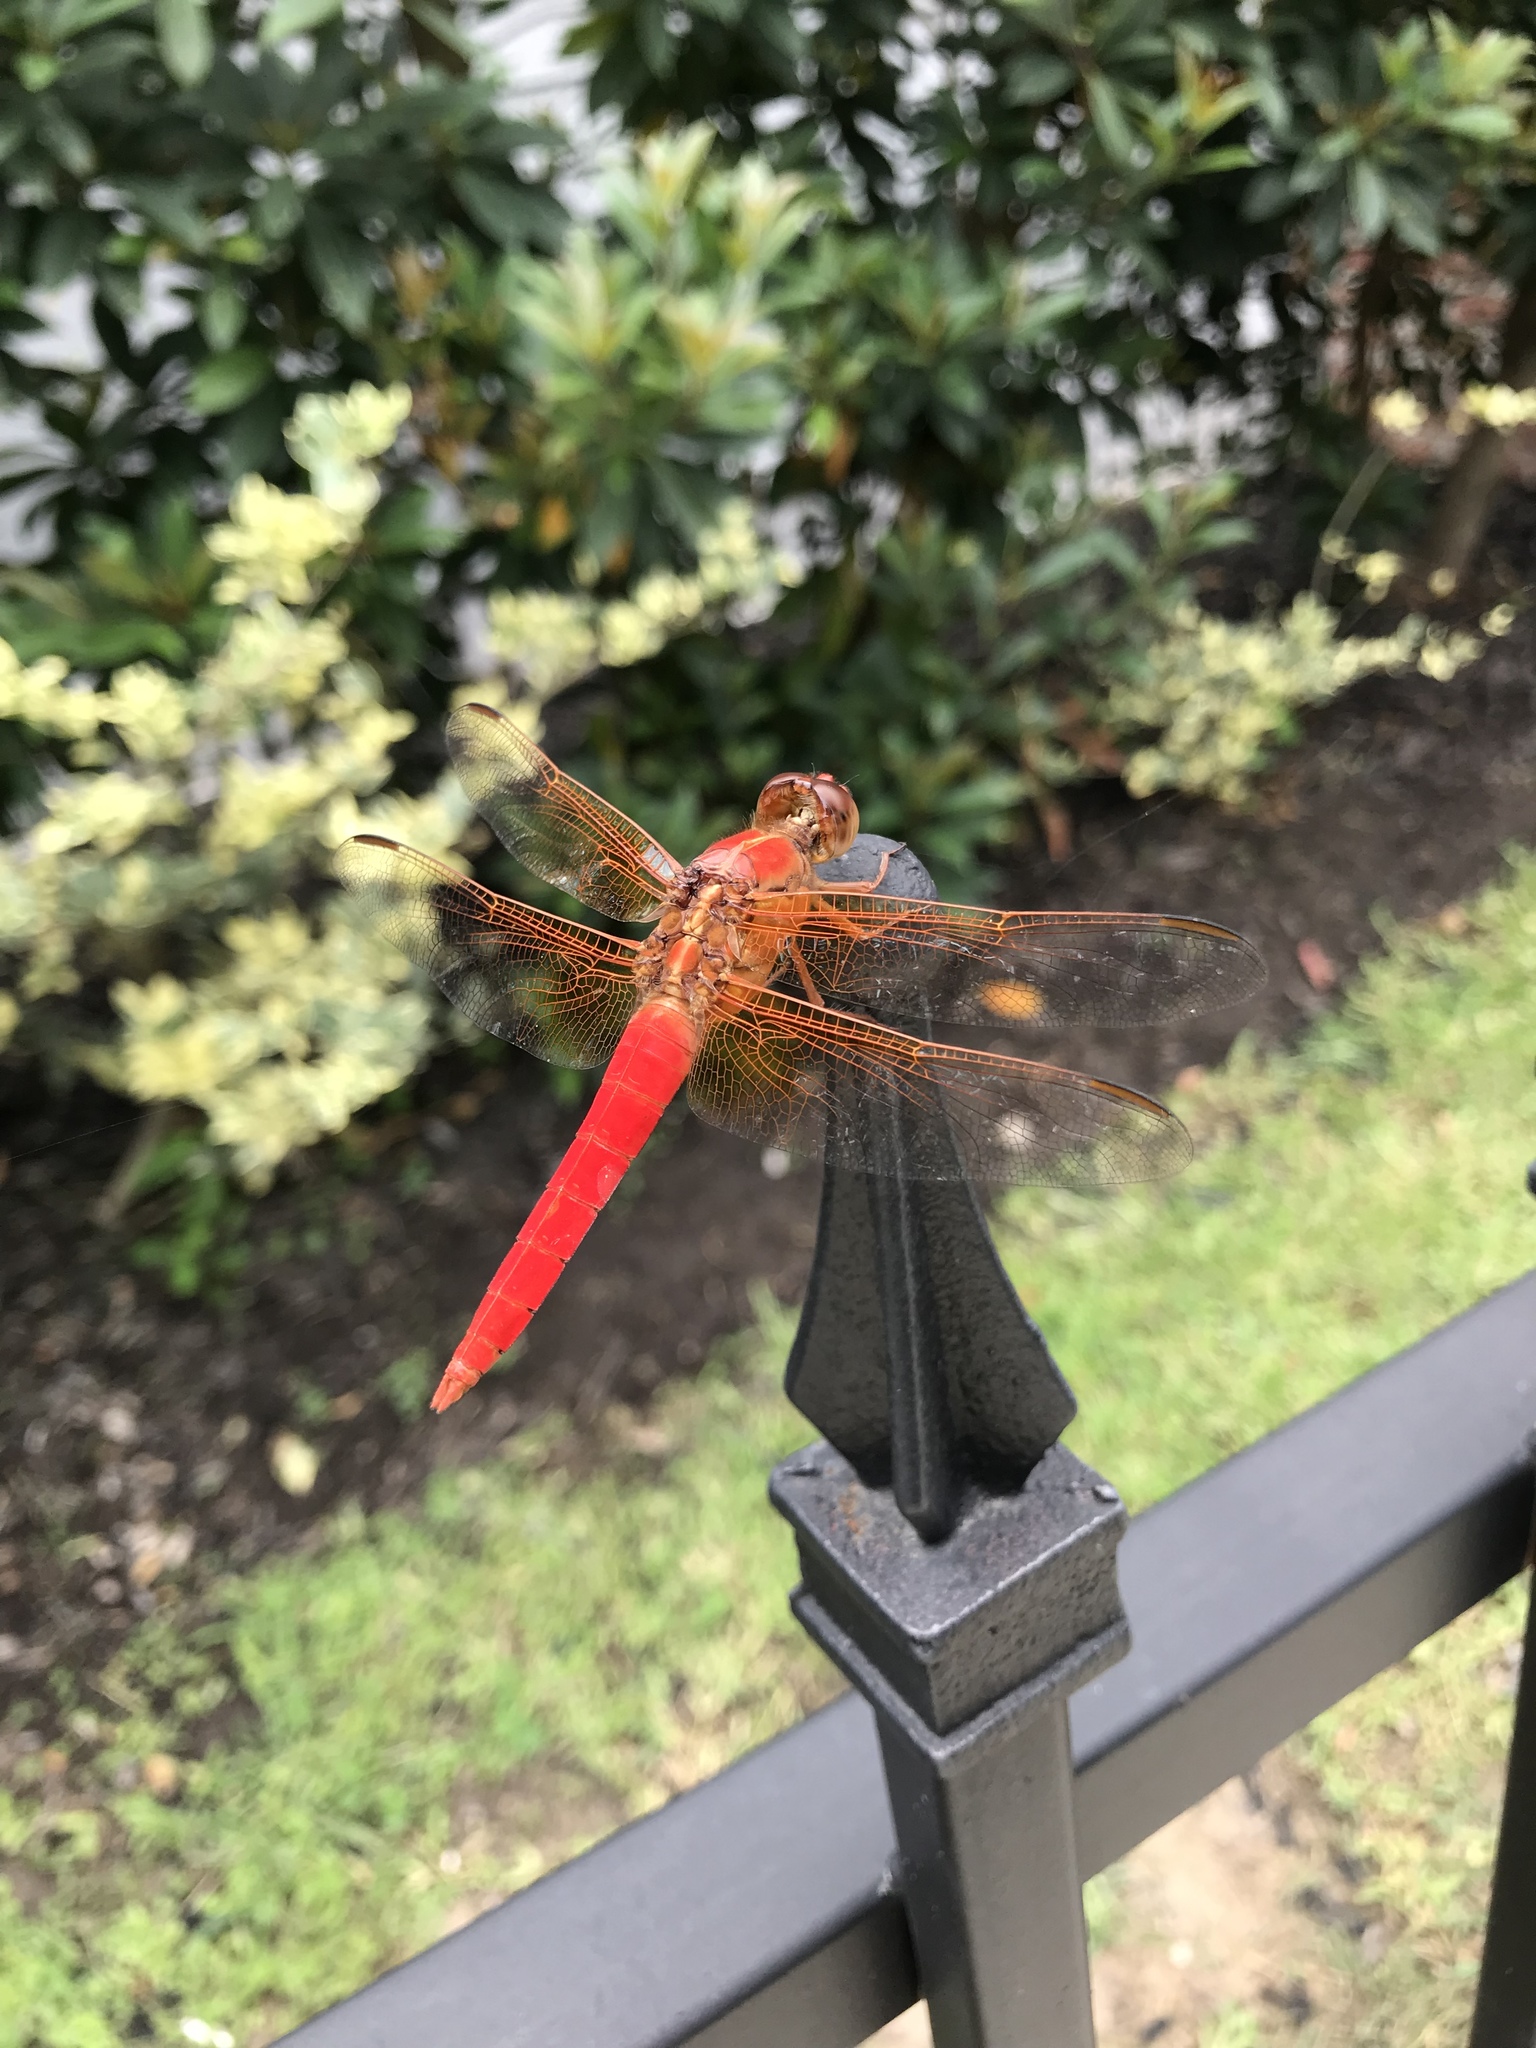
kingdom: Animalia
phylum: Arthropoda
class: Insecta
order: Odonata
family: Libellulidae
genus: Libellula
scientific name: Libellula croceipennis
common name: Neon skimmer
